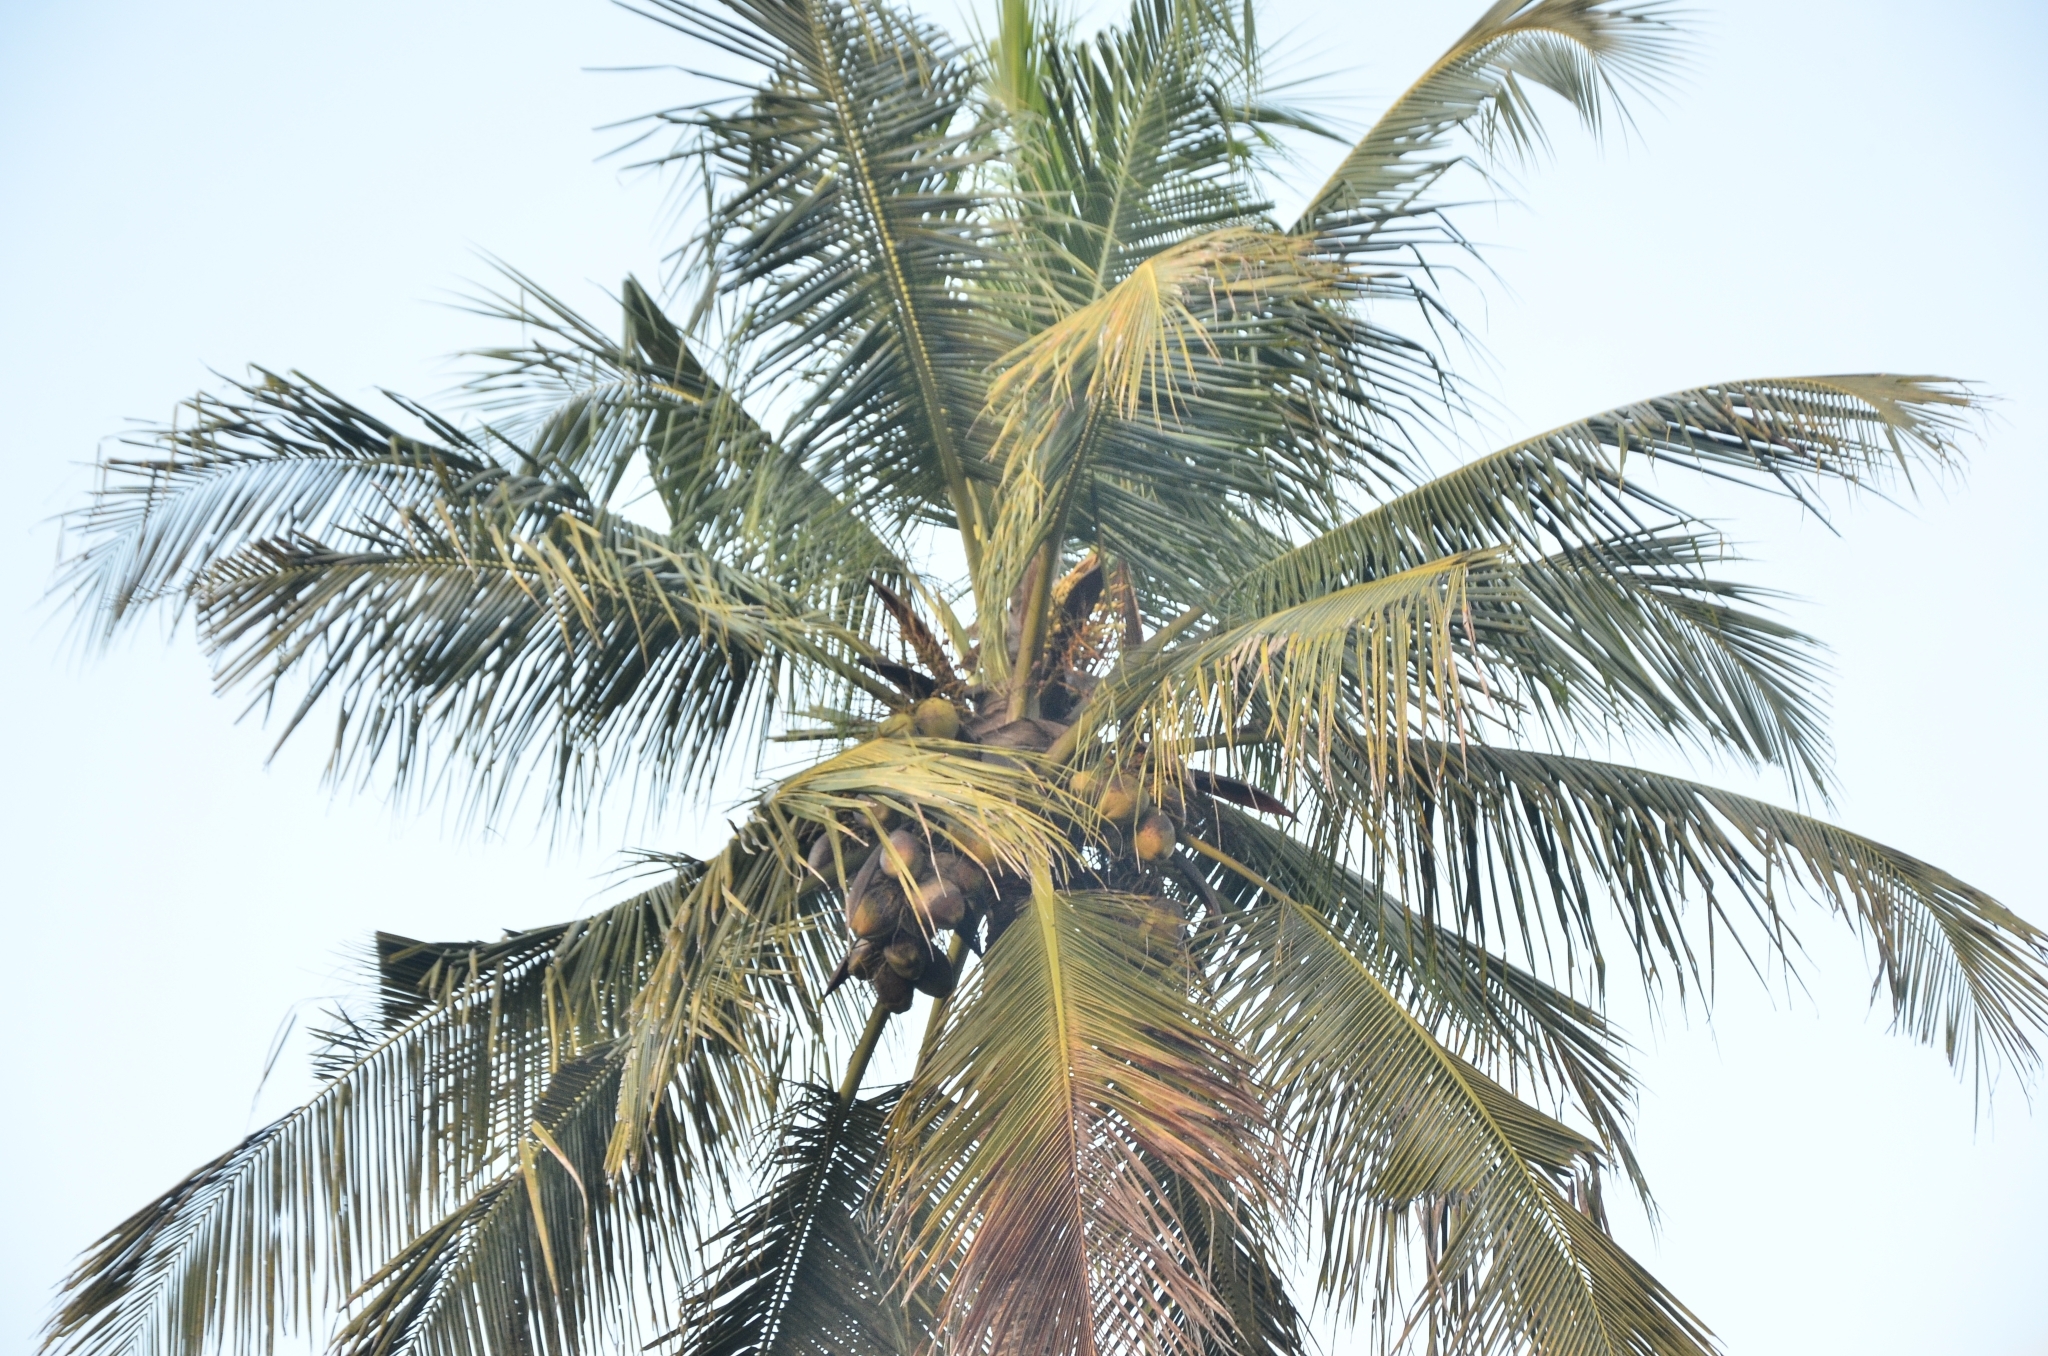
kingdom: Plantae
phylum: Tracheophyta
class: Liliopsida
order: Arecales
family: Arecaceae
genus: Cocos
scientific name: Cocos nucifera
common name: Coconut palm
